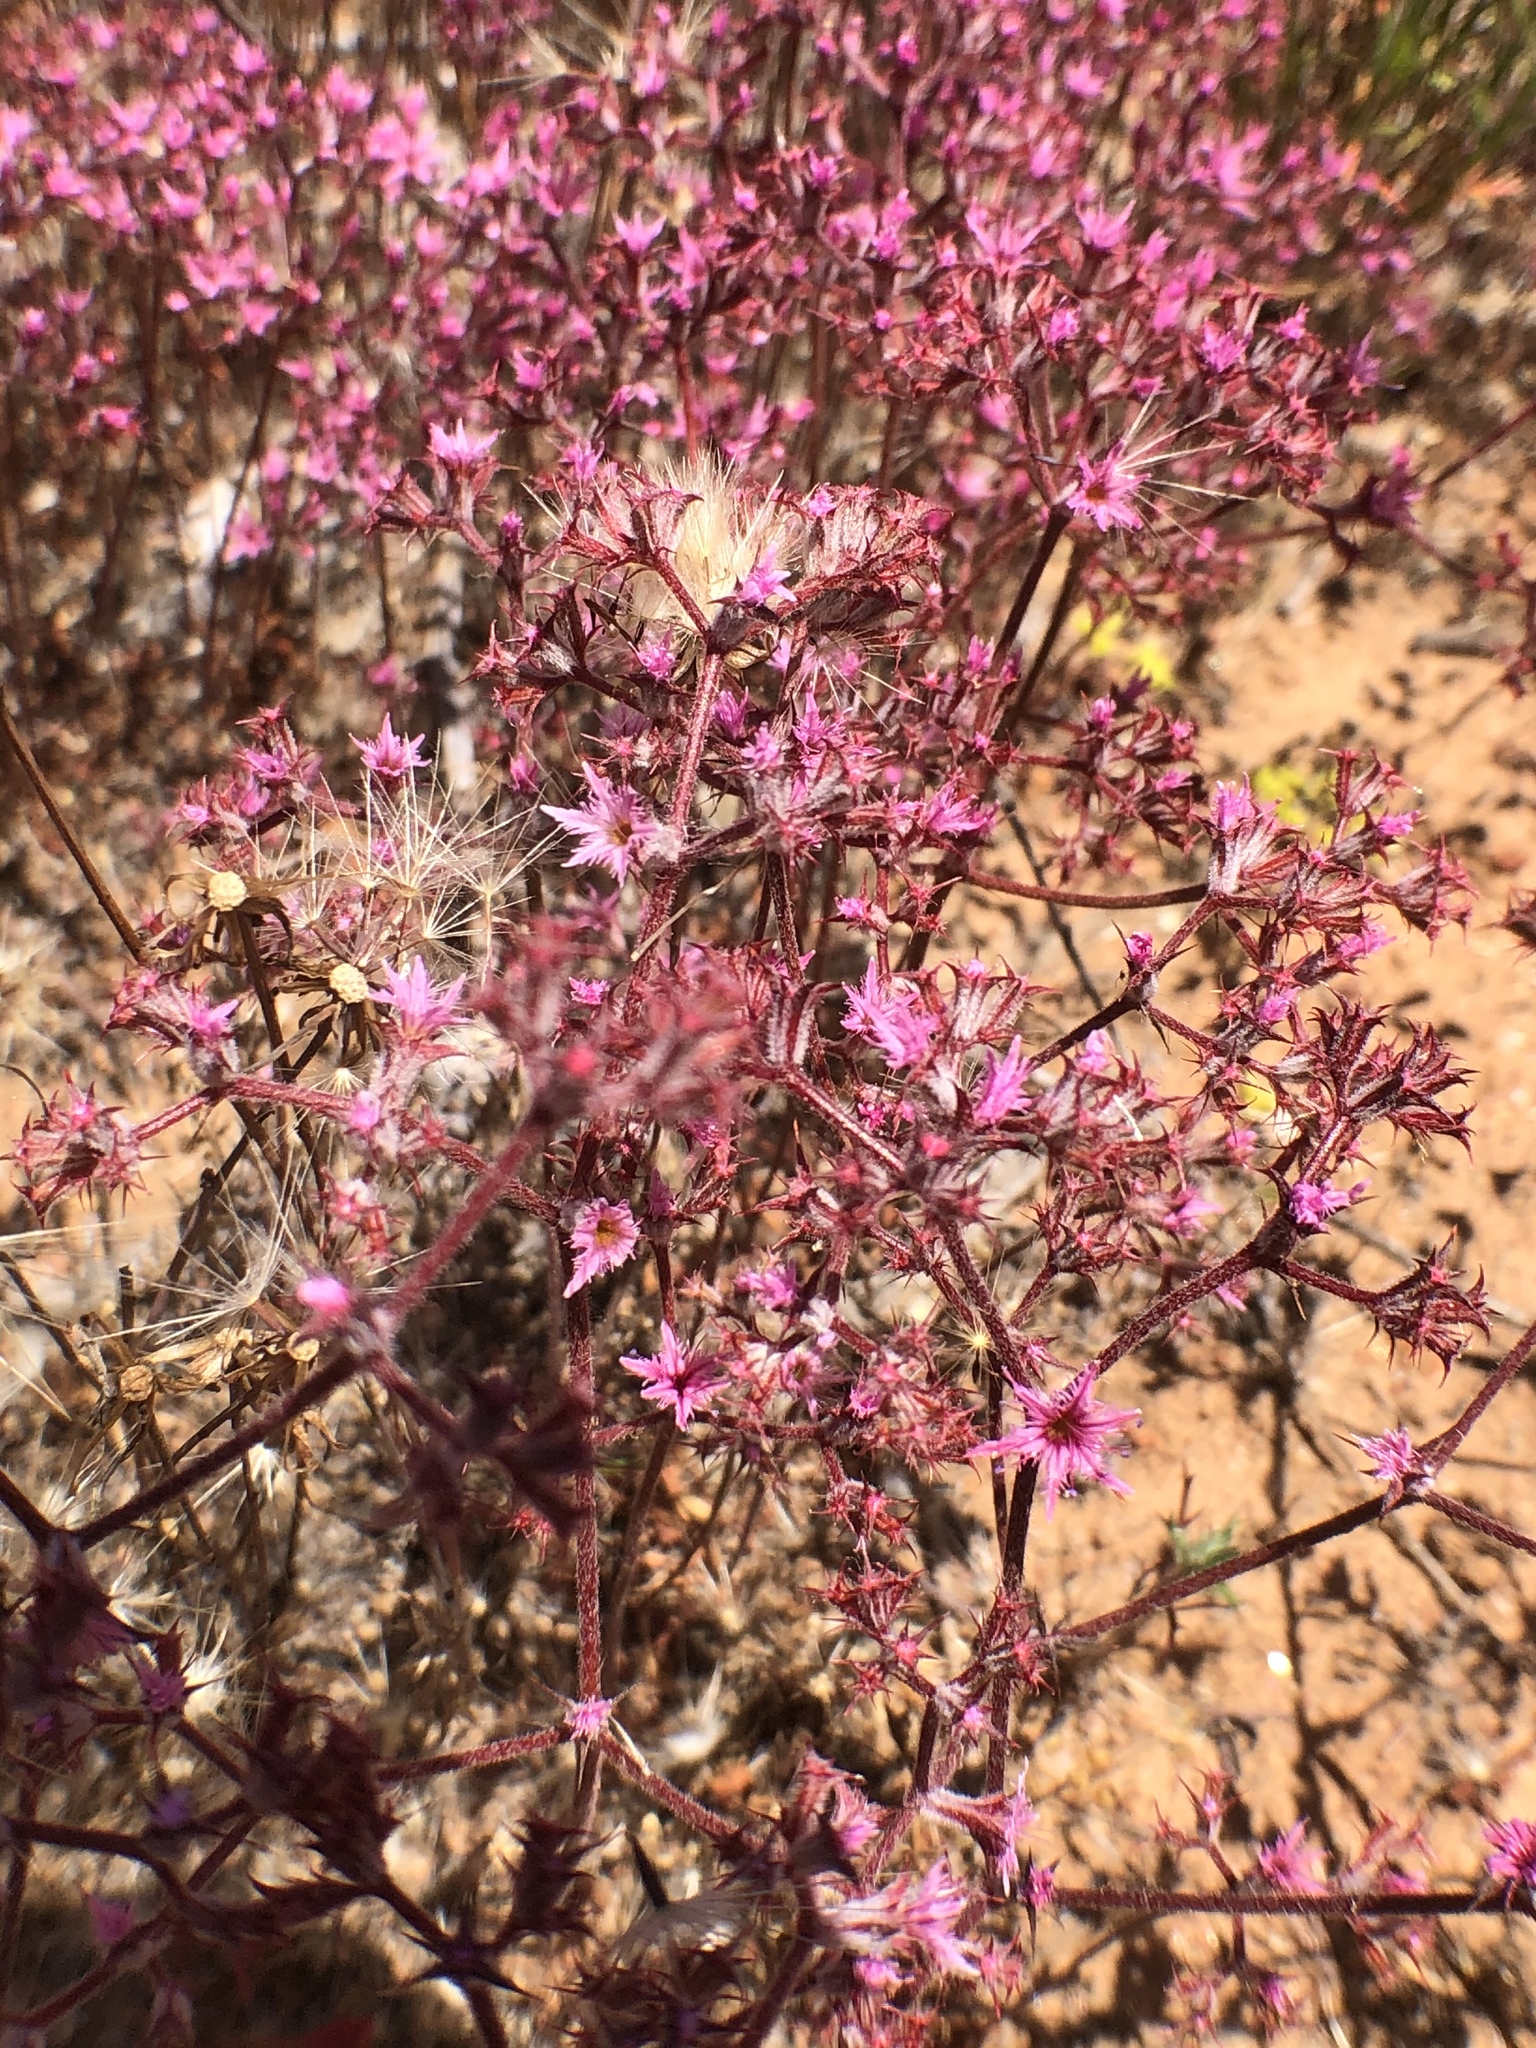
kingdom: Plantae
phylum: Tracheophyta
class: Magnoliopsida
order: Caryophyllales
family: Polygonaceae
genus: Chorizanthe
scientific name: Chorizanthe fimbriata
